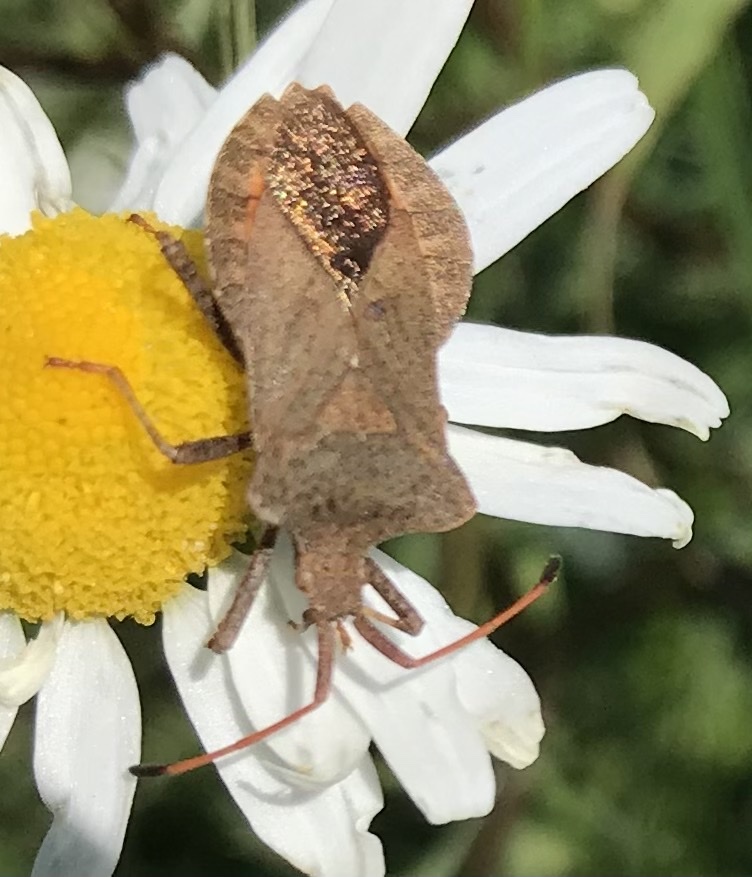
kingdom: Animalia
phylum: Arthropoda
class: Insecta
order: Hemiptera
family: Coreidae
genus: Coreus
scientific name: Coreus marginatus
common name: Dock bug
